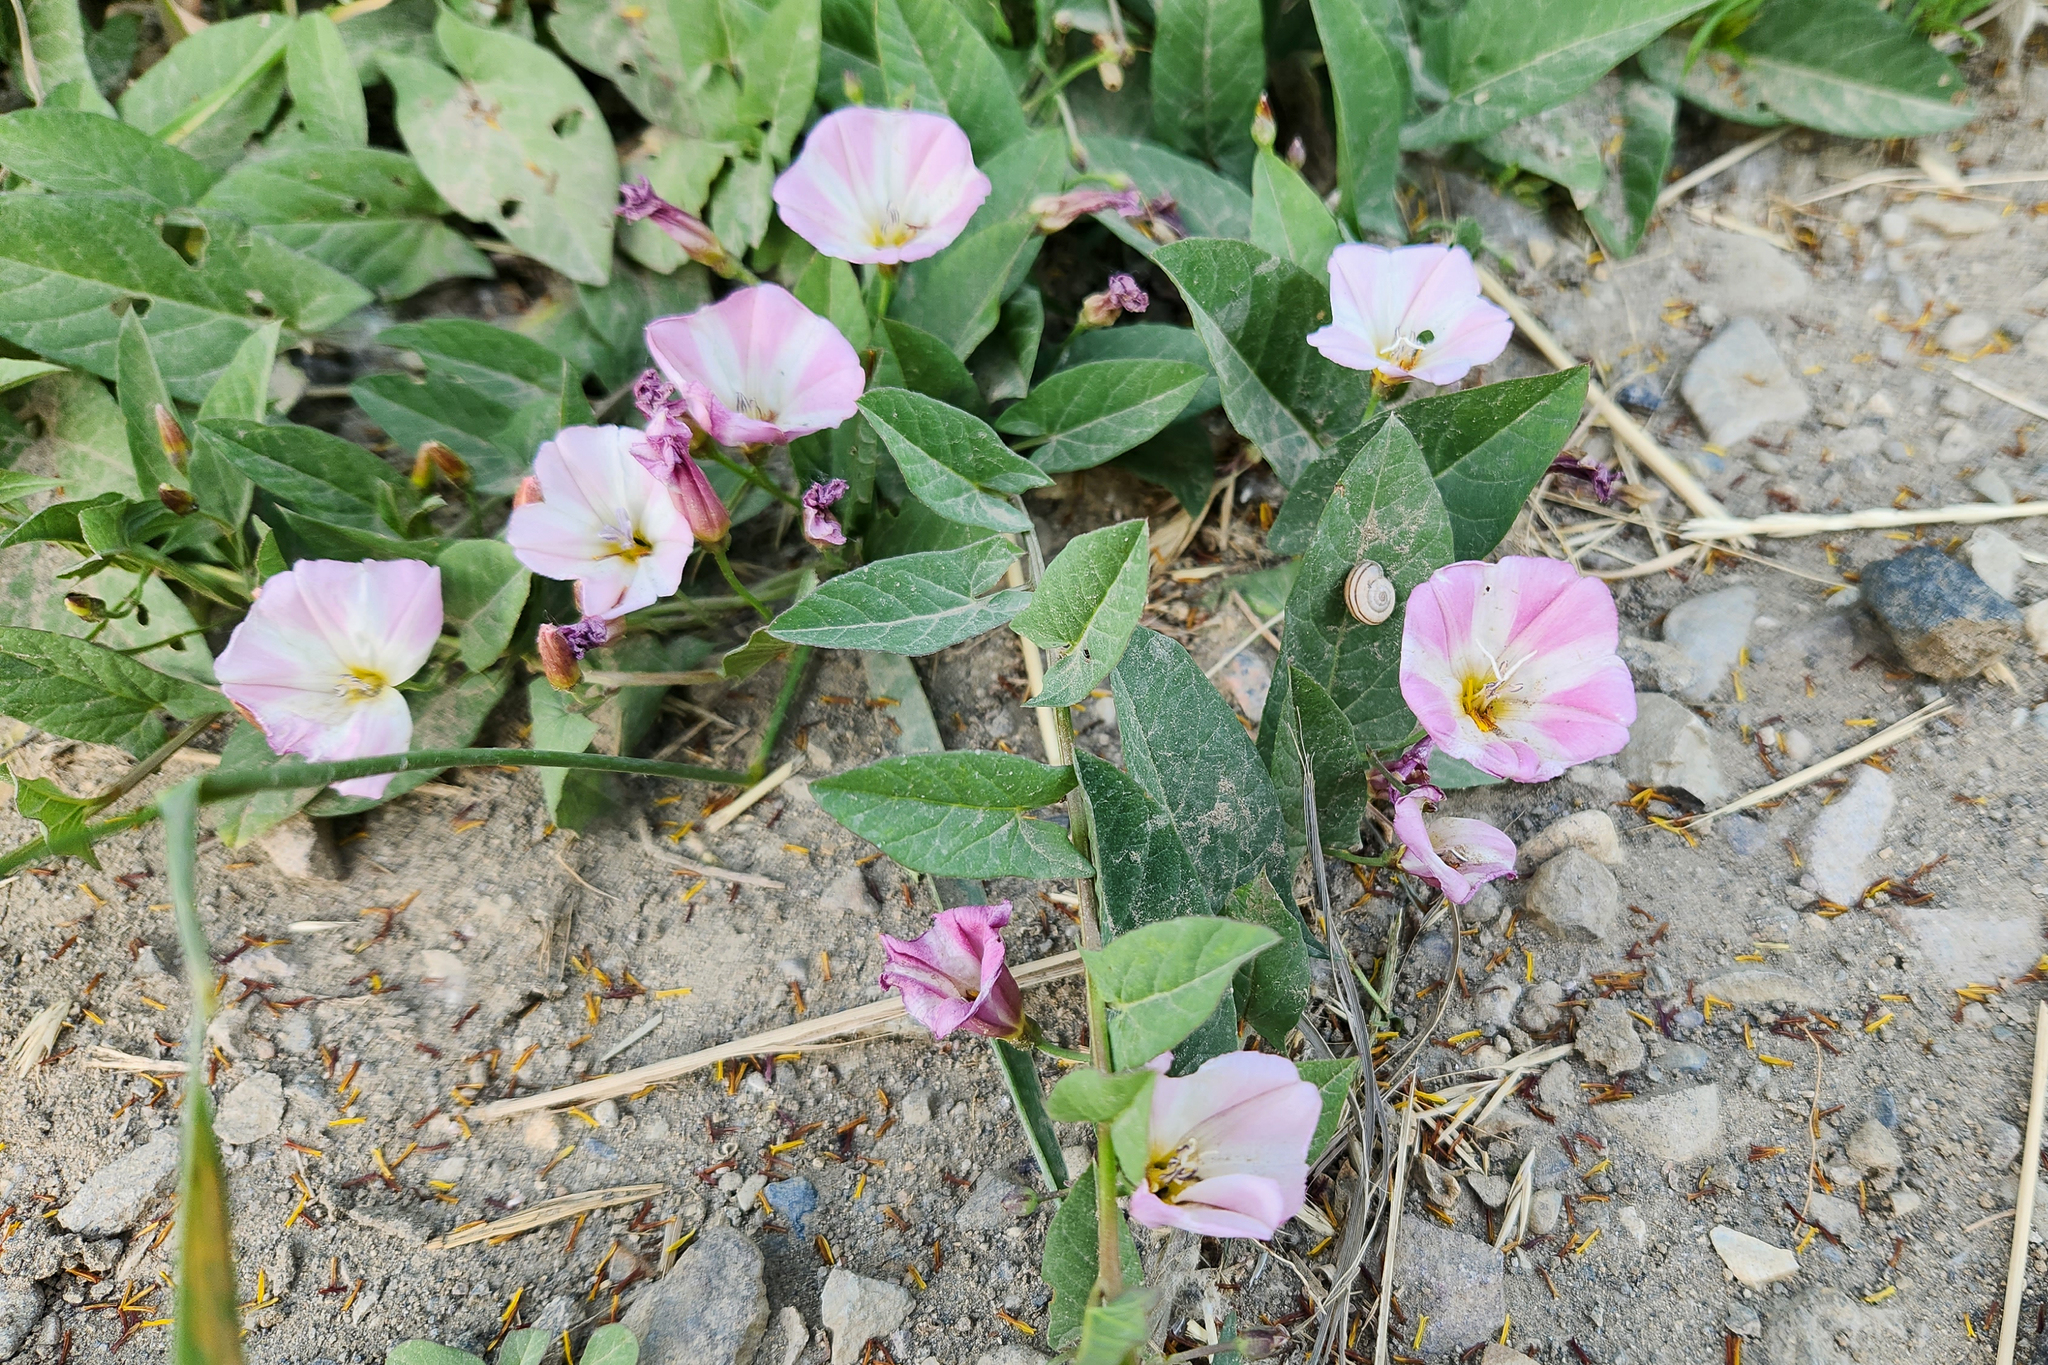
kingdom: Plantae
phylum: Tracheophyta
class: Magnoliopsida
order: Solanales
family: Convolvulaceae
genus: Convolvulus
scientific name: Convolvulus arvensis
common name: Field bindweed
